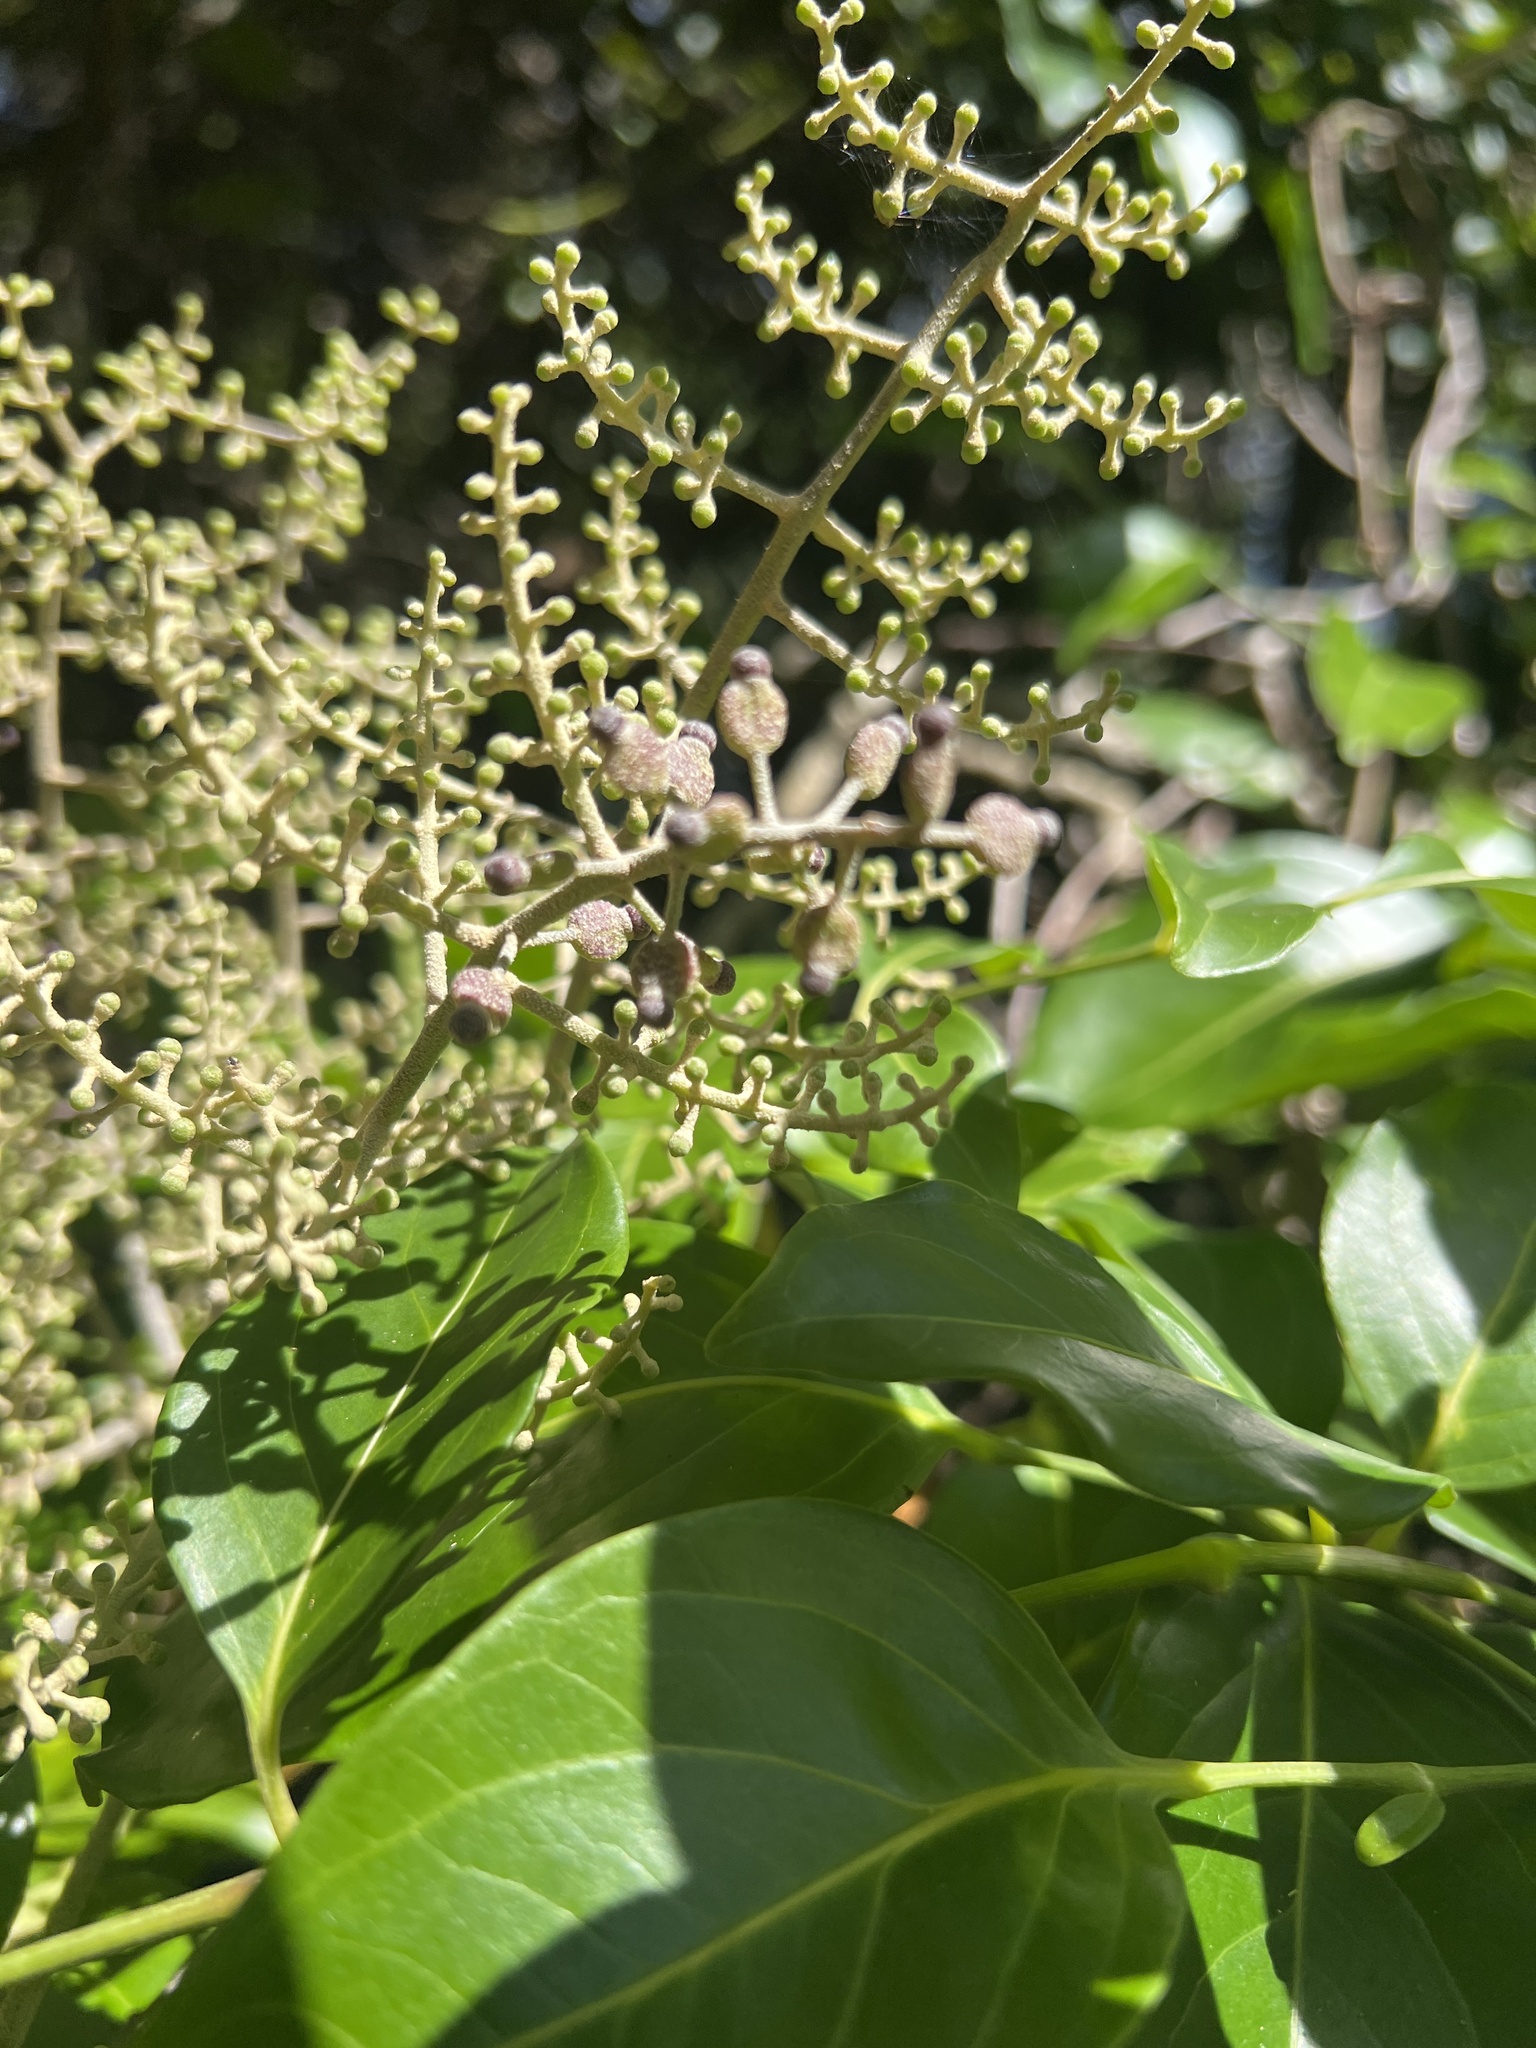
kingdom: Plantae
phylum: Tracheophyta
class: Magnoliopsida
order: Apiales
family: Araliaceae
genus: Polyscias
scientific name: Polyscias elegans
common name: Mowbulan whitewood
